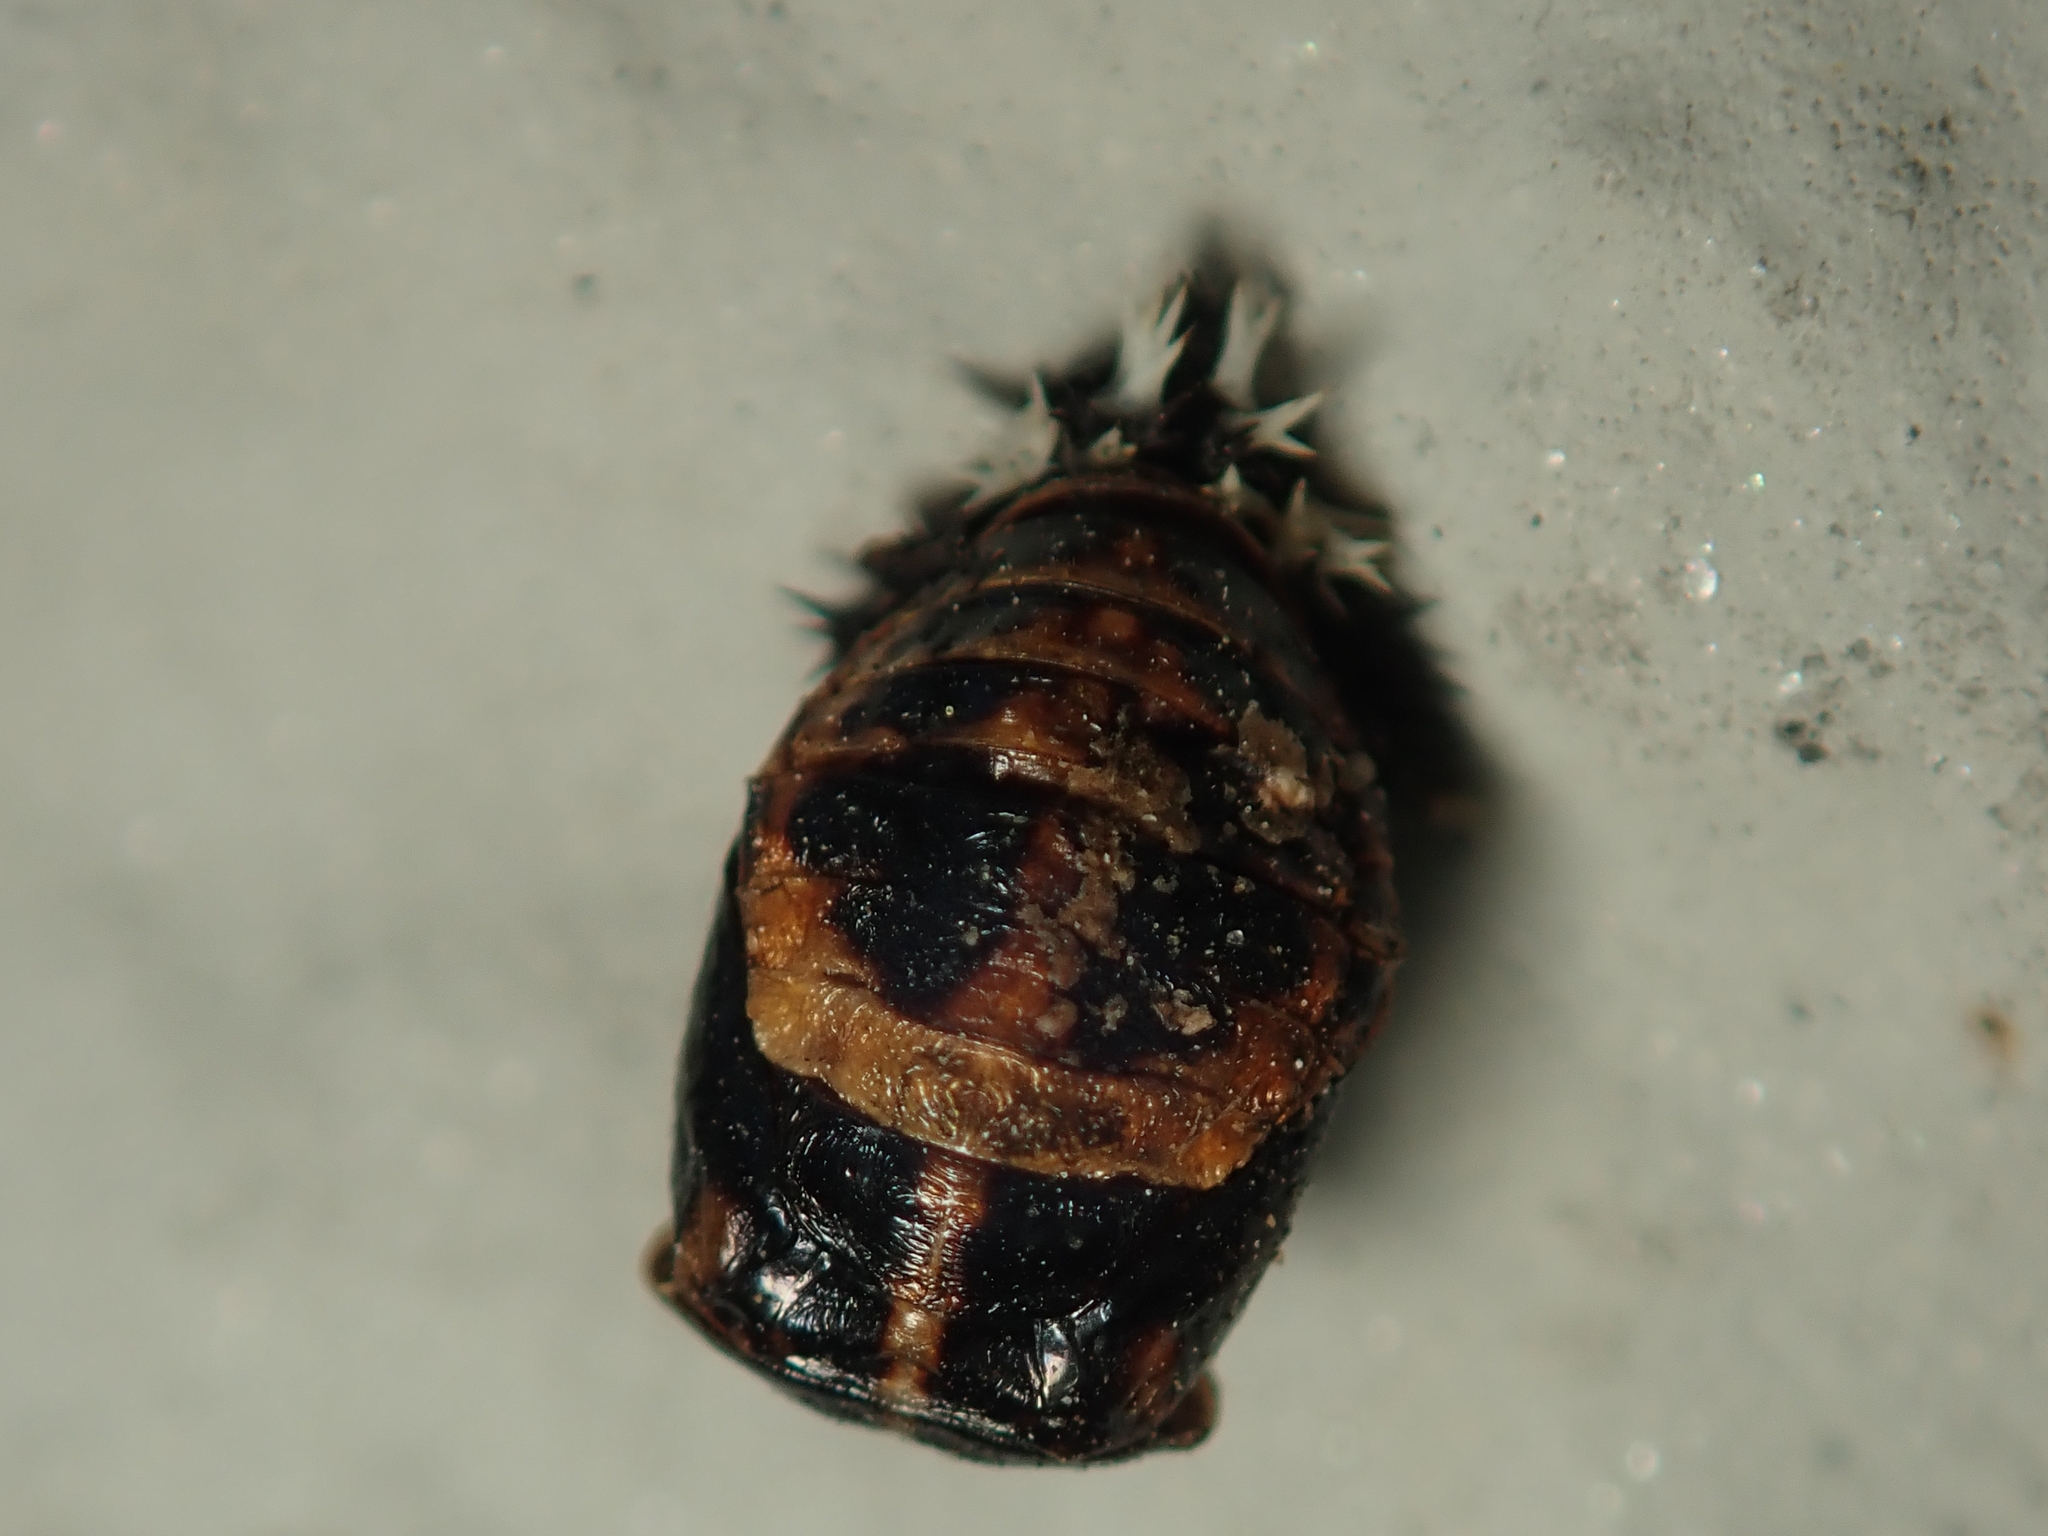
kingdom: Animalia
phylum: Arthropoda
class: Insecta
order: Coleoptera
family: Coccinellidae
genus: Harmonia
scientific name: Harmonia axyridis
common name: Harlequin ladybird
